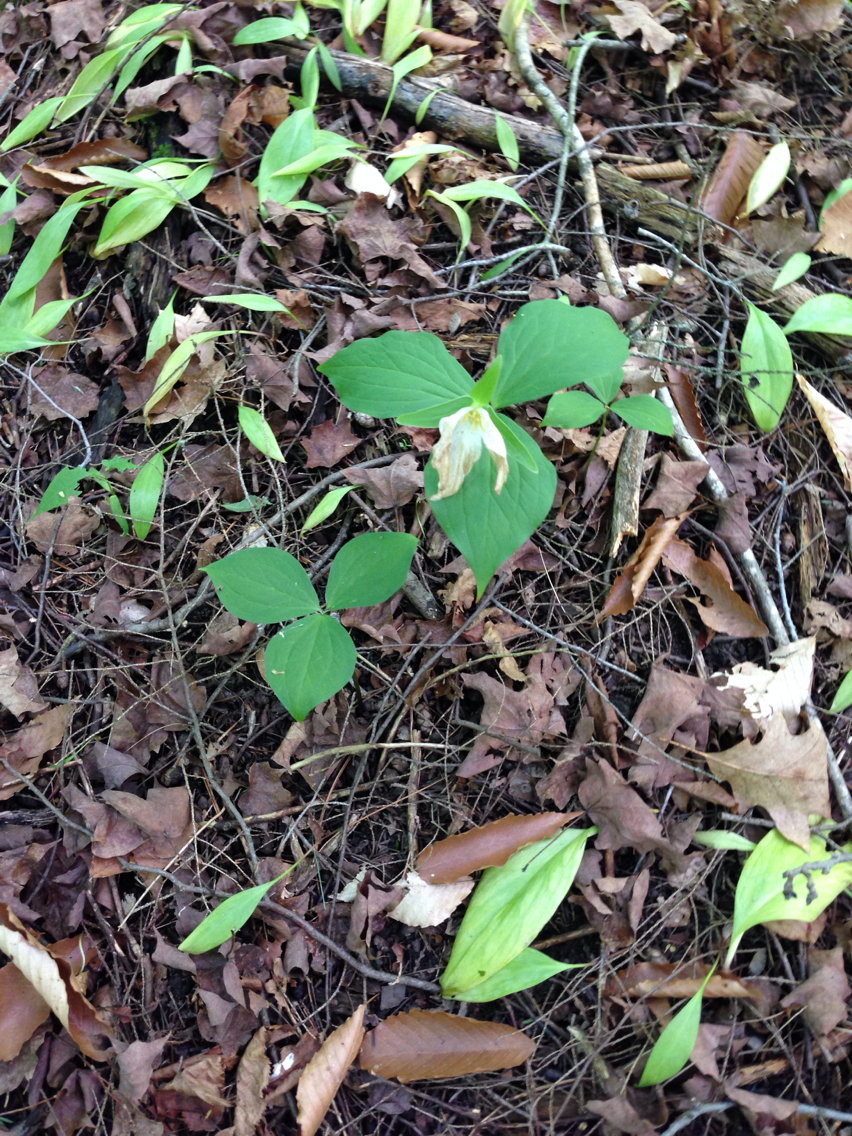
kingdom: Plantae
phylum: Tracheophyta
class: Liliopsida
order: Liliales
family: Melanthiaceae
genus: Trillium
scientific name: Trillium grandiflorum
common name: Great white trillium
